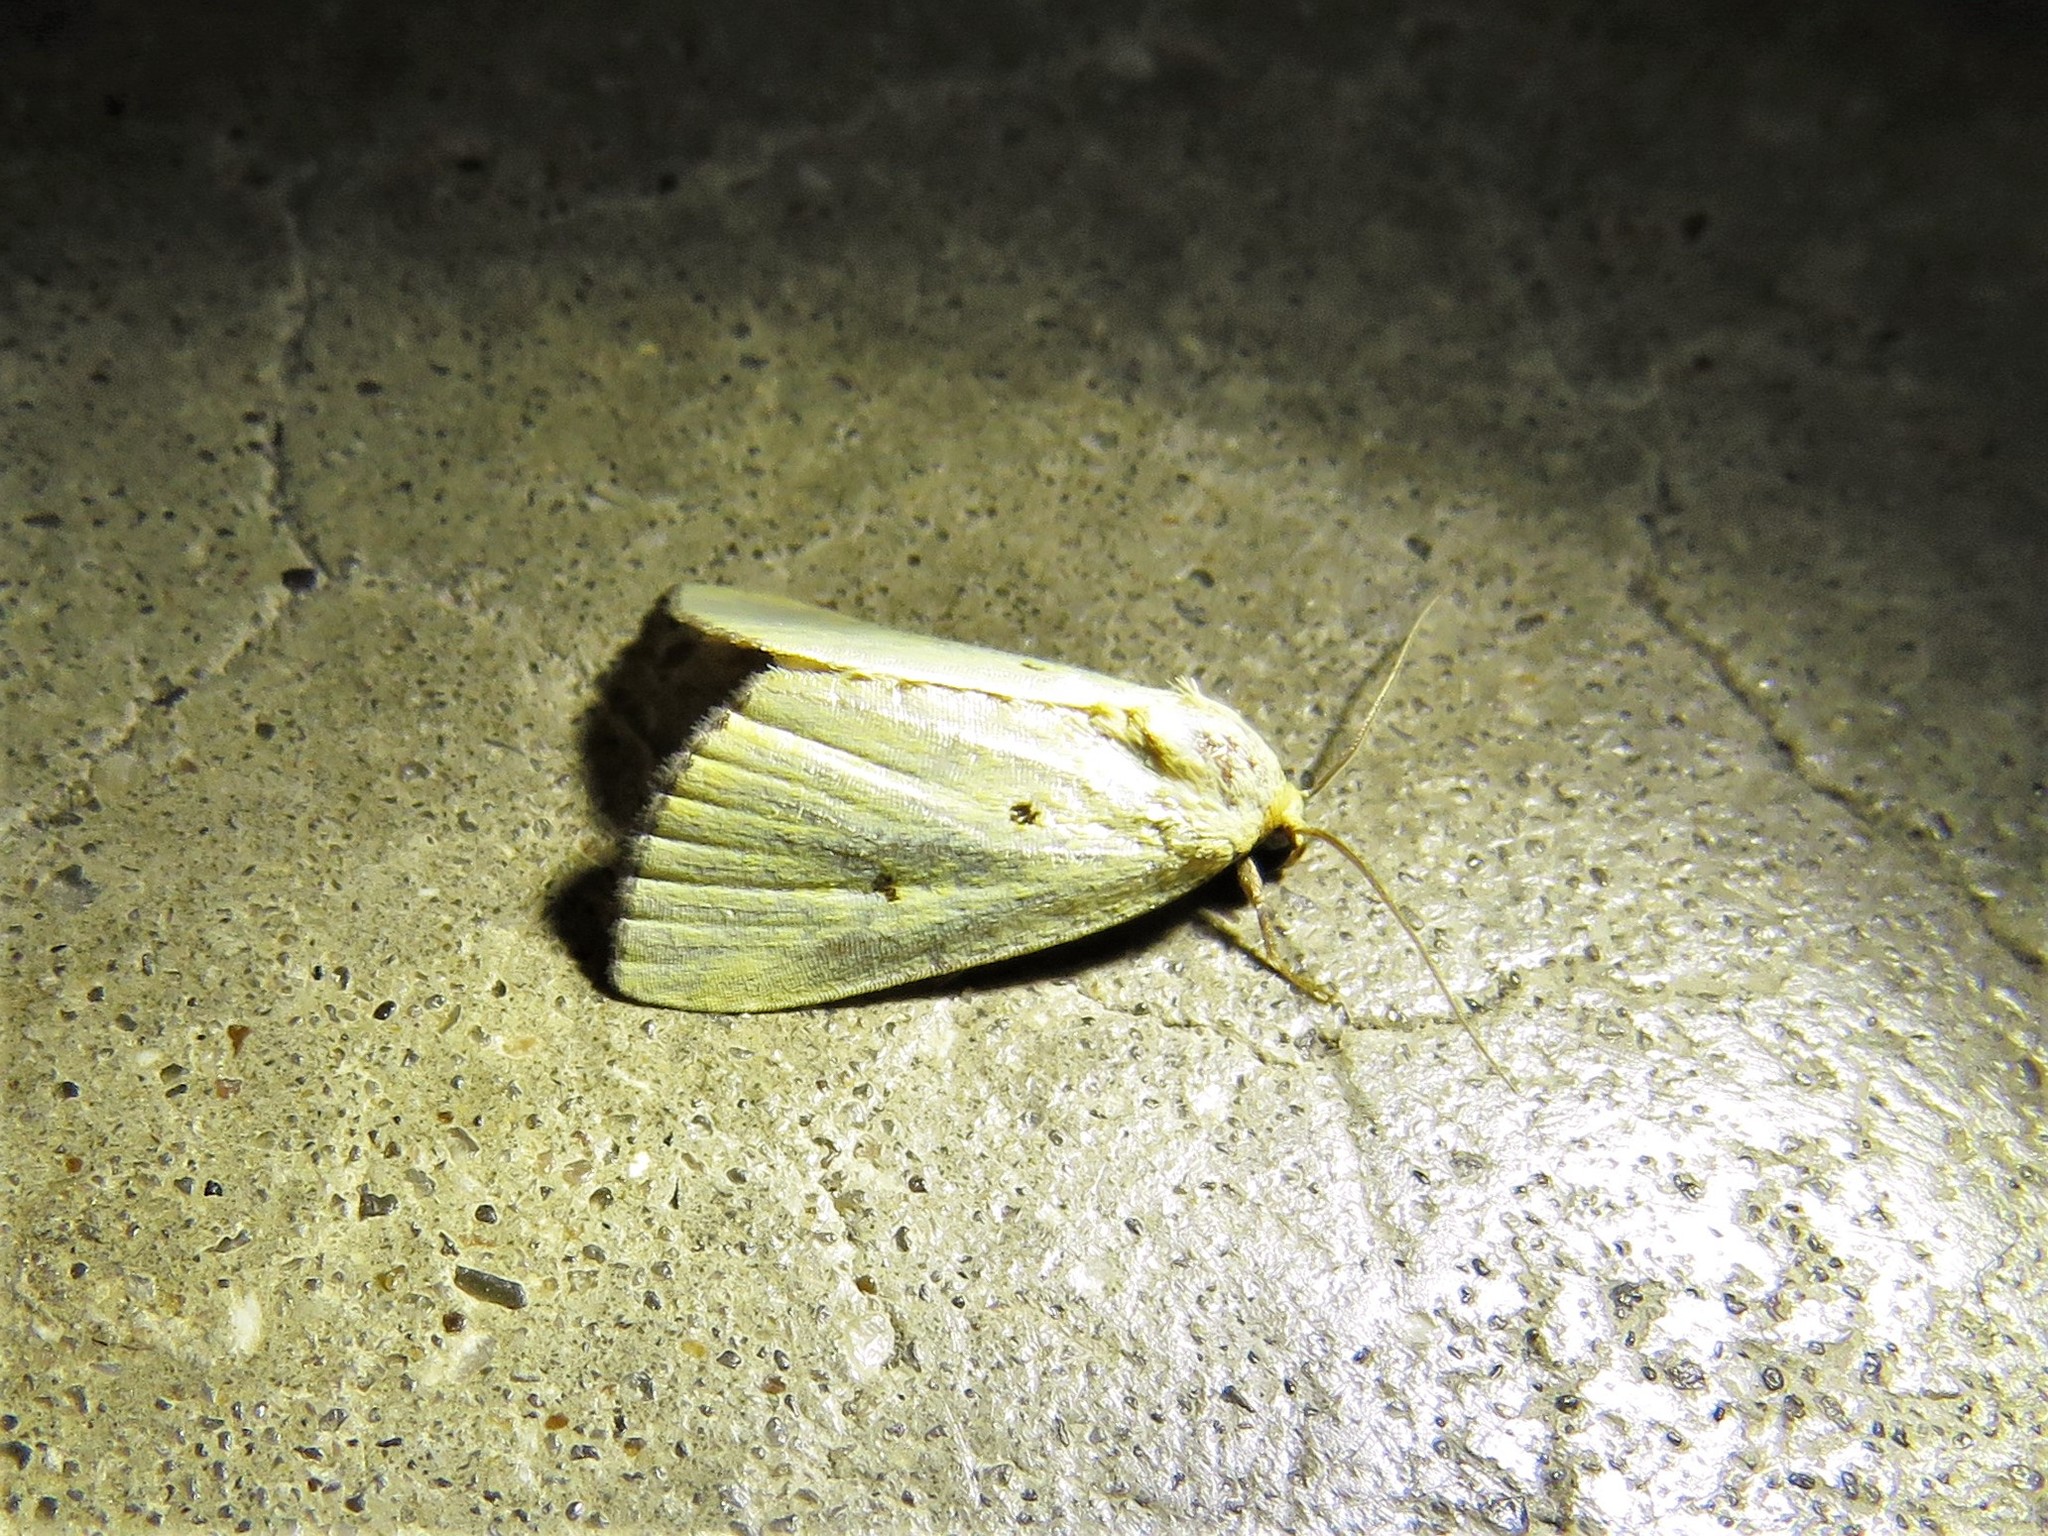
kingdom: Animalia
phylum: Arthropoda
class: Insecta
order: Lepidoptera
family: Noctuidae
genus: Marimatha
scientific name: Marimatha nigrofimbria
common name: Black-bordered lemon moth
